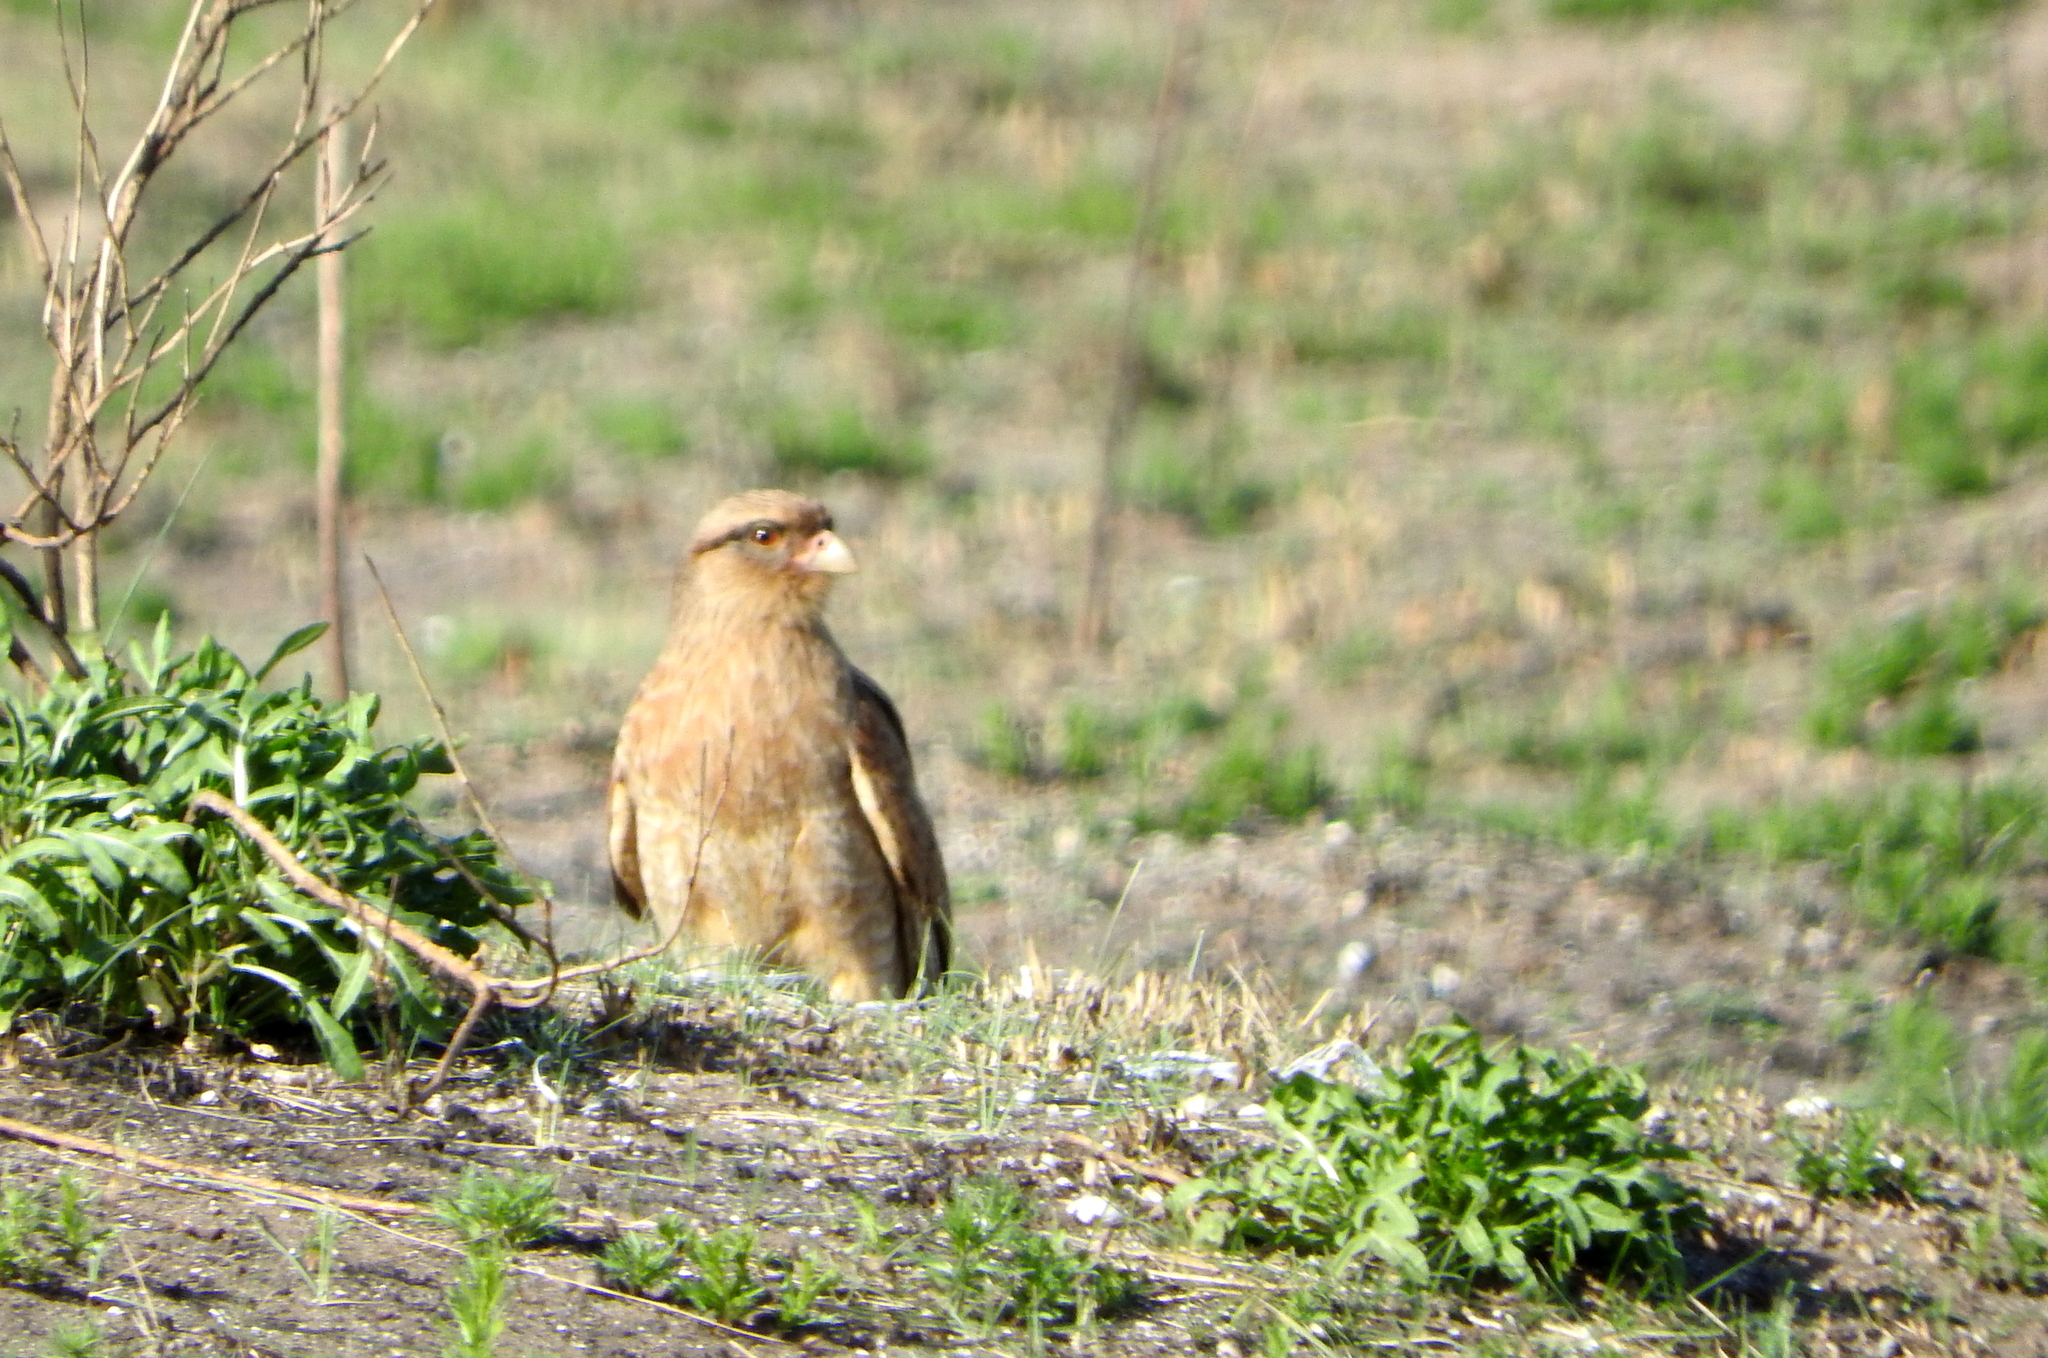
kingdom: Animalia
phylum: Chordata
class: Aves
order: Falconiformes
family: Falconidae
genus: Daptrius
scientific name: Daptrius
